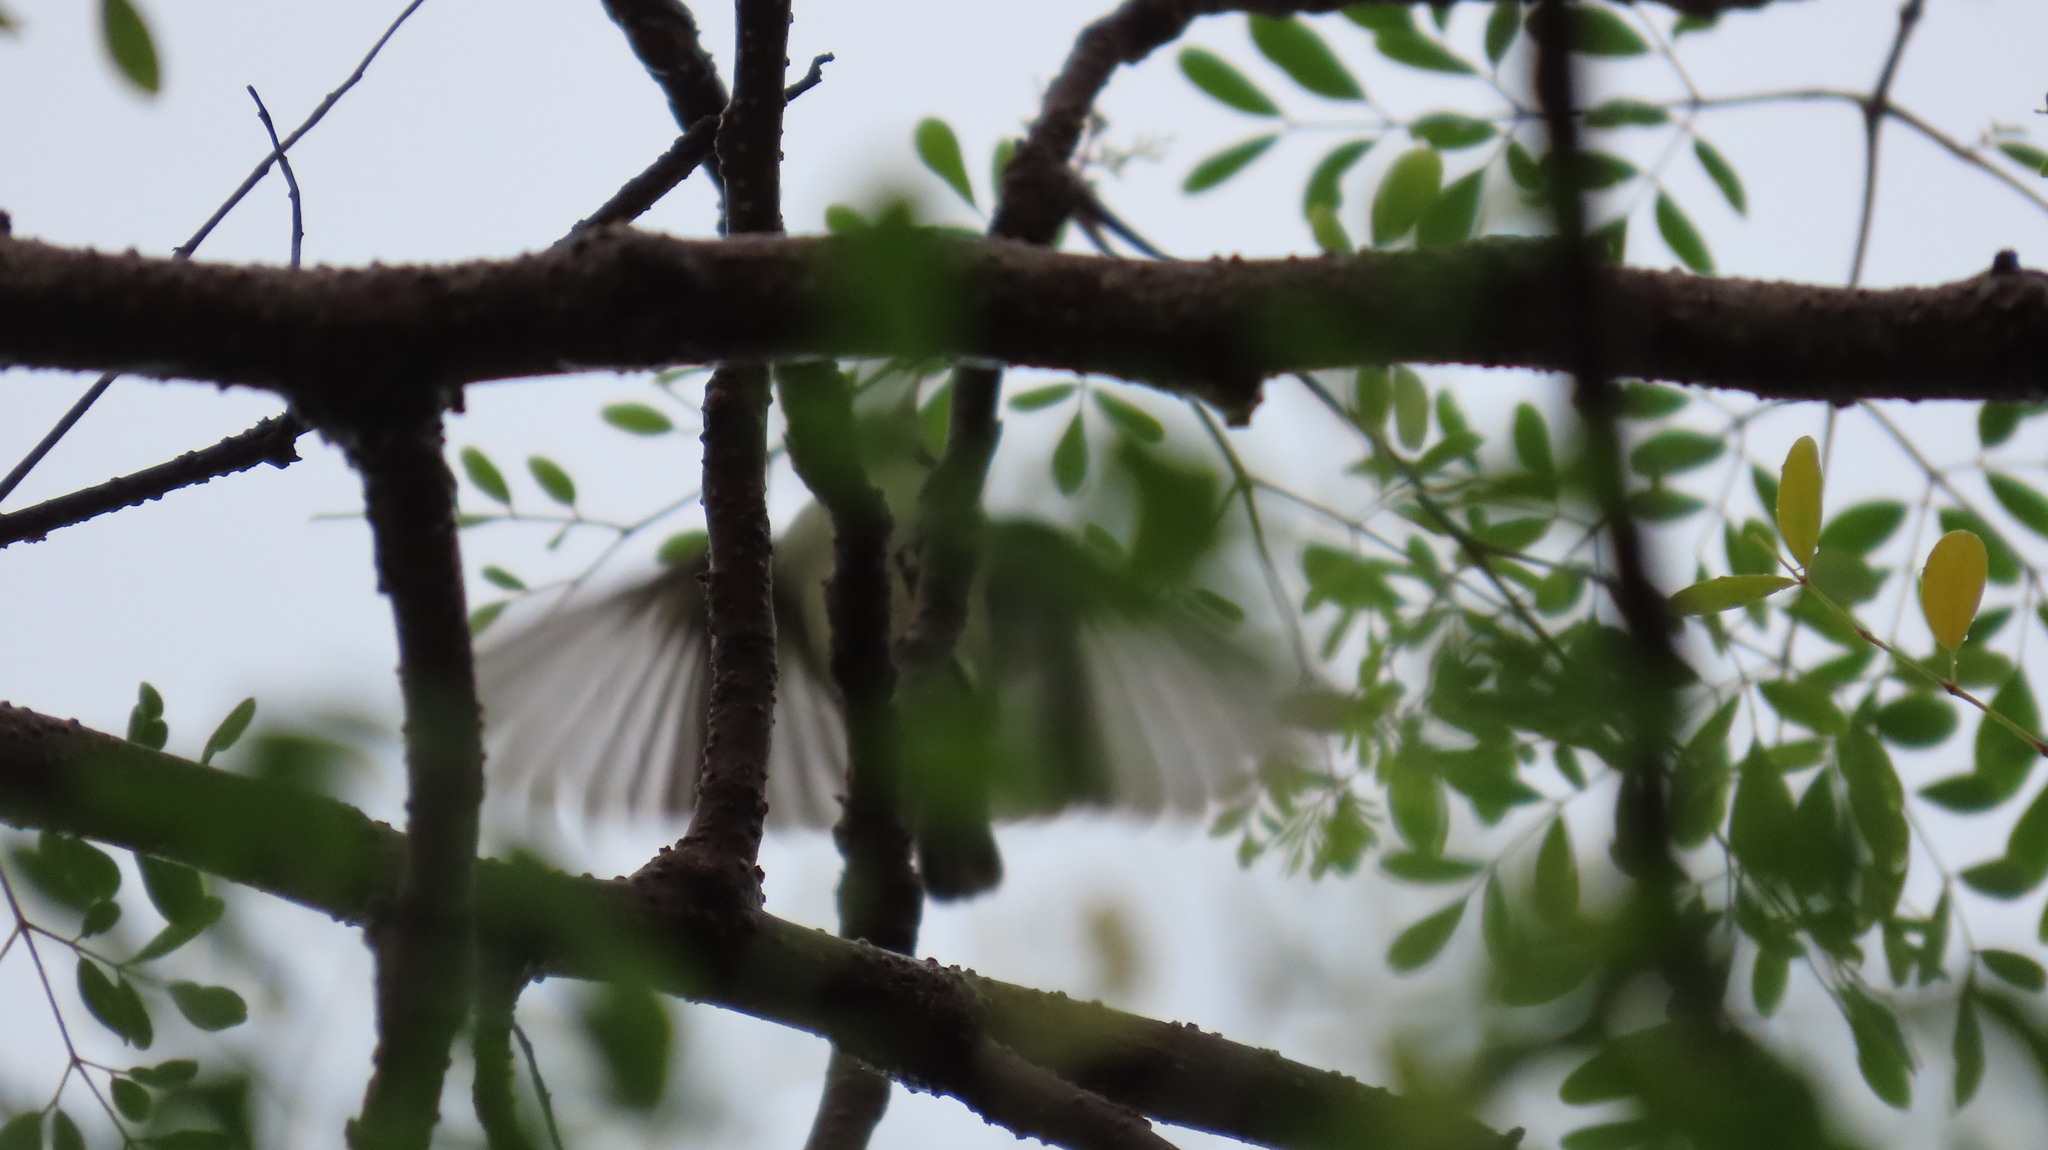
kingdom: Animalia
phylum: Chordata
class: Aves
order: Passeriformes
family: Dicaeidae
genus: Dicaeum
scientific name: Dicaeum erythrorhynchos
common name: Pale-billed flowerpecker
